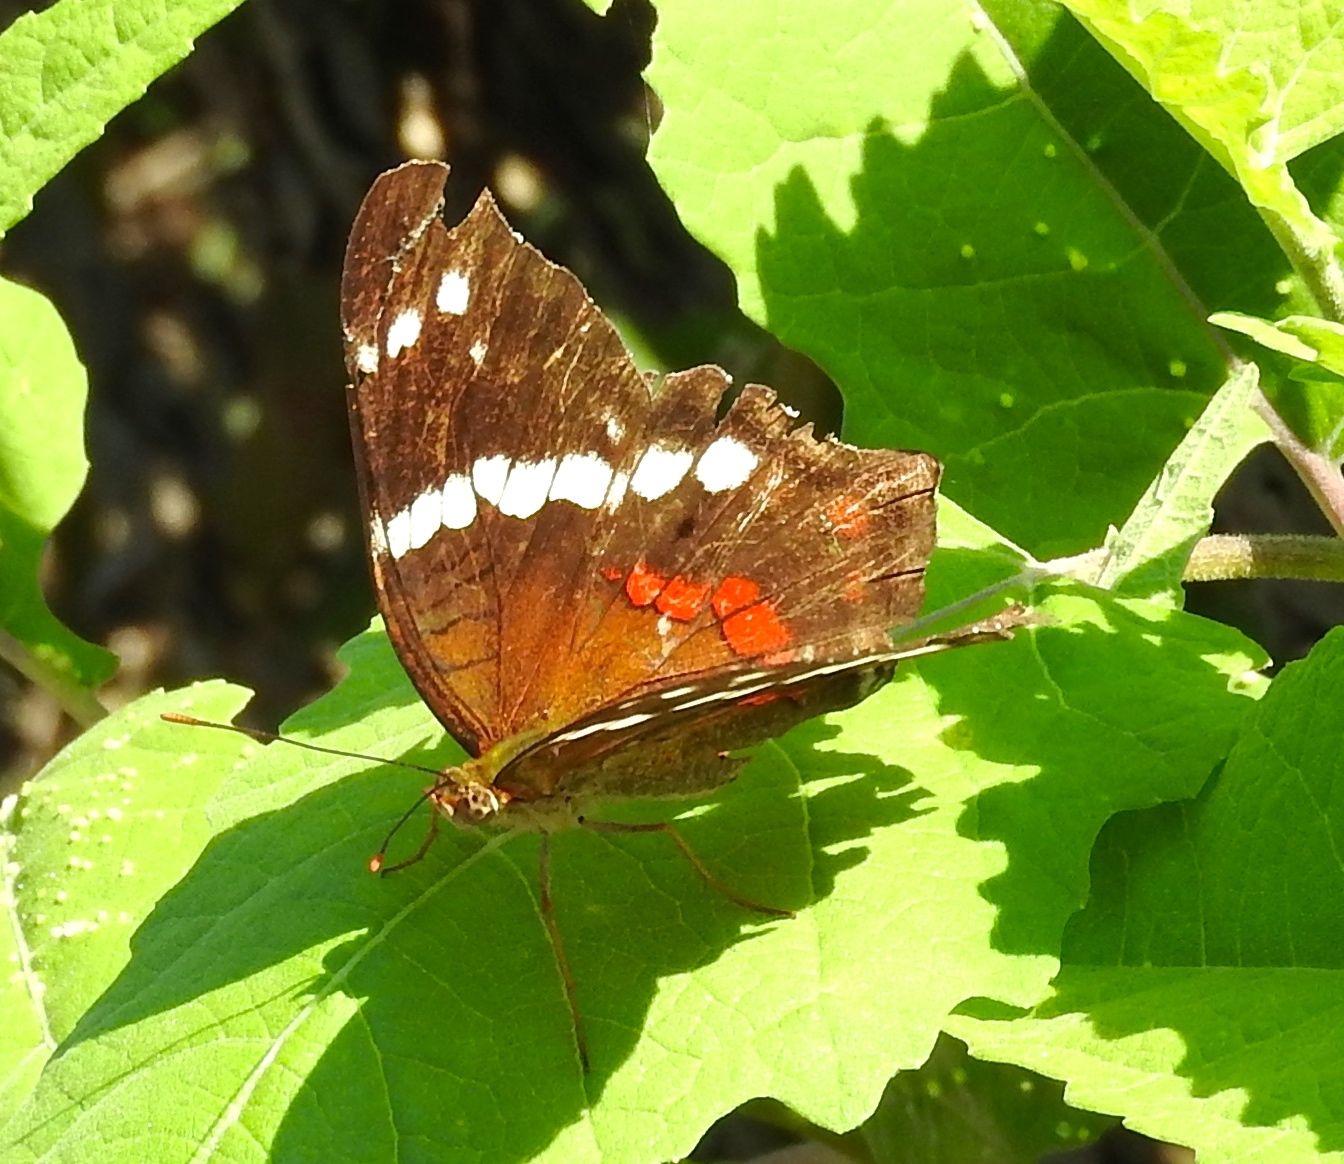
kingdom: Animalia
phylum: Arthropoda
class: Insecta
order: Lepidoptera
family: Nymphalidae
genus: Anartia
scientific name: Anartia fatima
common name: Banded peacock
